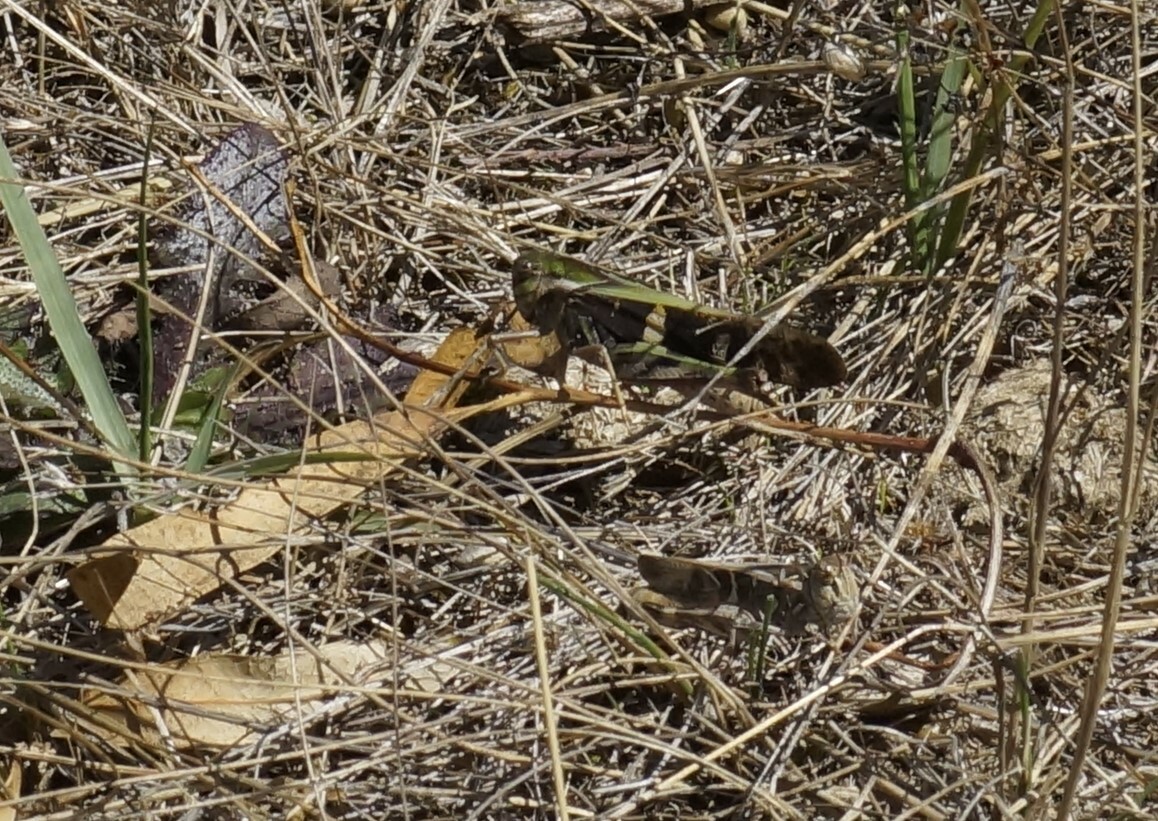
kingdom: Animalia
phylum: Arthropoda
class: Insecta
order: Orthoptera
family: Acrididae
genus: Gastrimargus
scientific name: Gastrimargus musicus
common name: Yellow-winged locust
